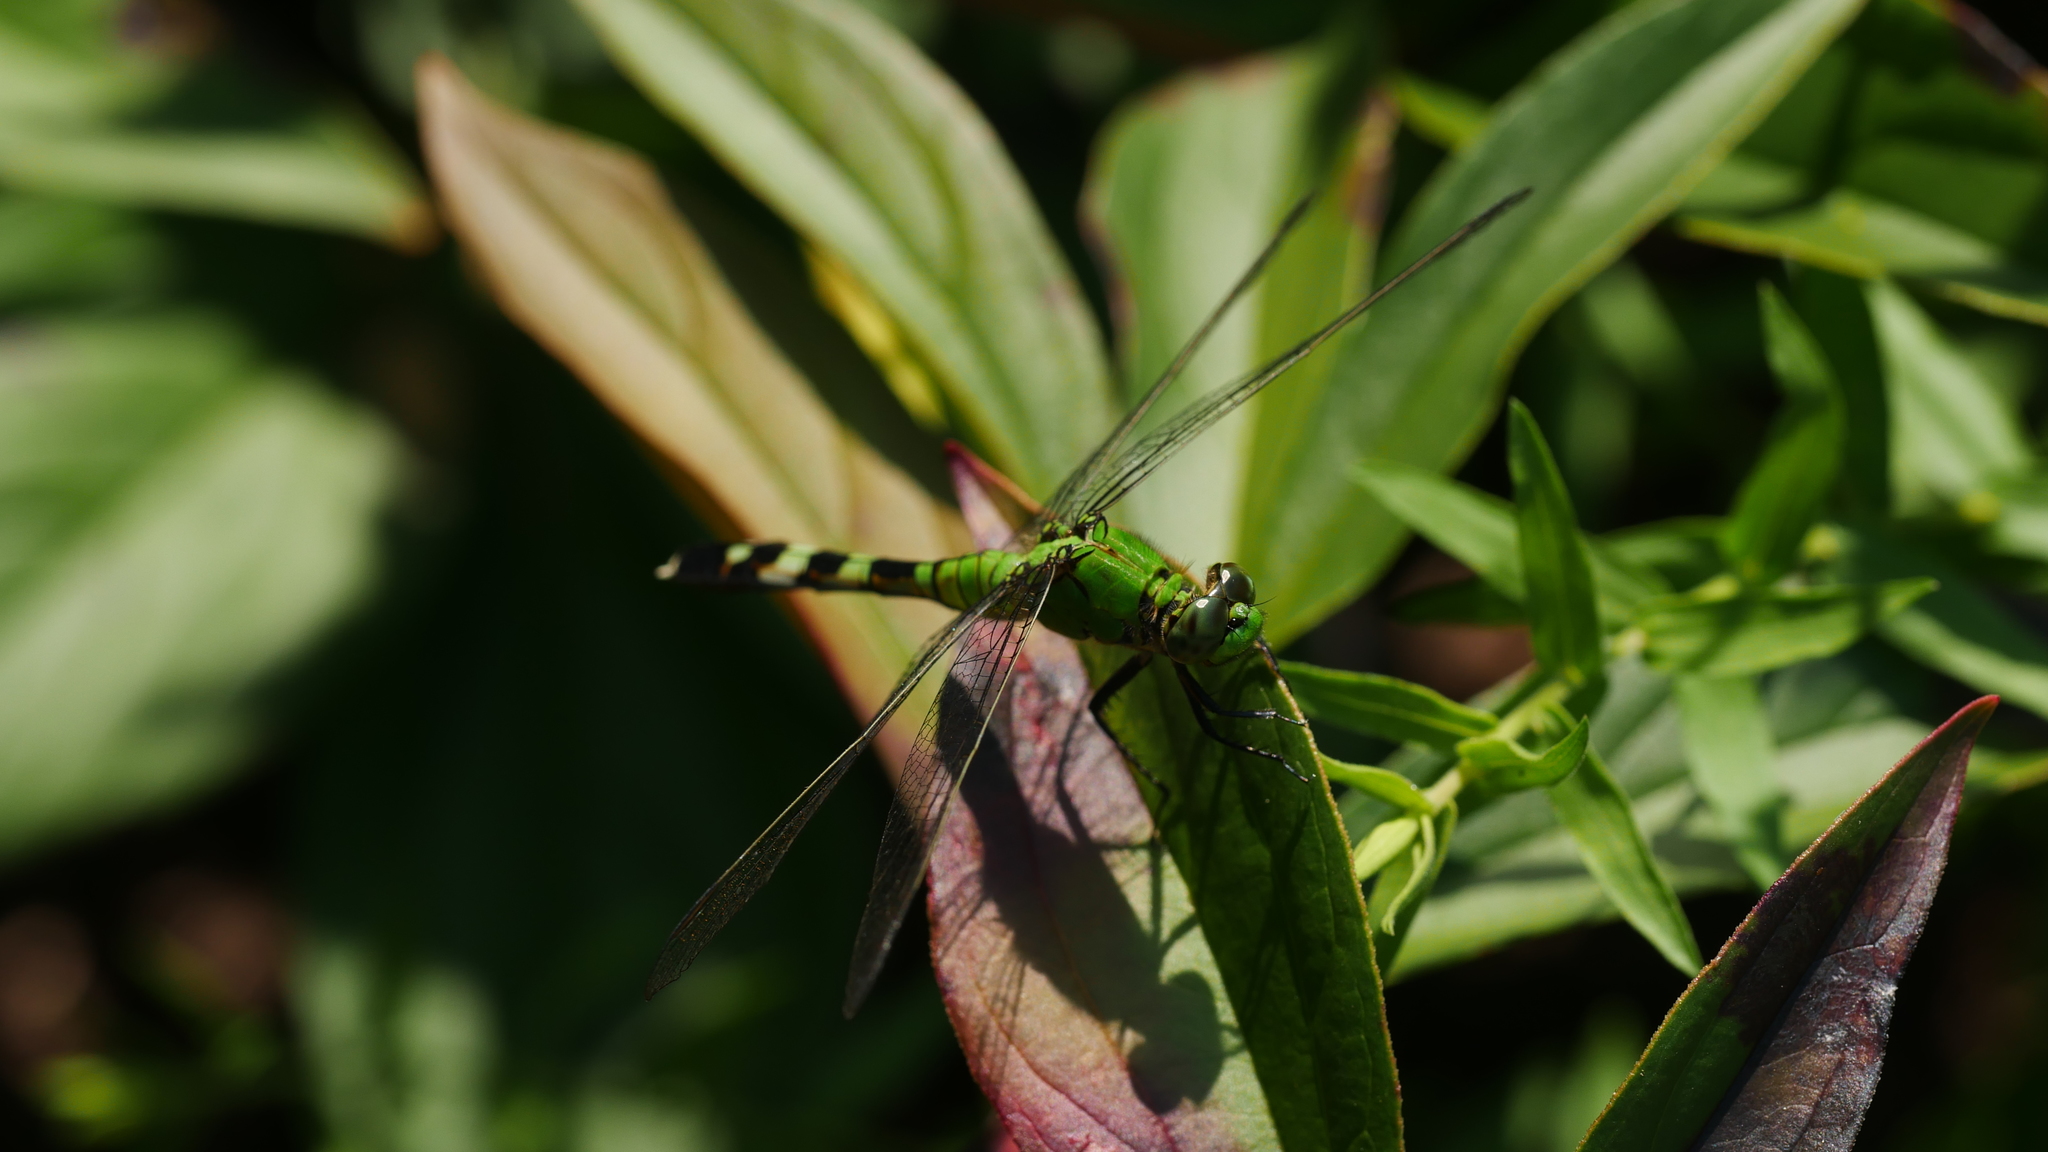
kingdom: Animalia
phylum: Arthropoda
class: Insecta
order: Odonata
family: Libellulidae
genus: Erythemis
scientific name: Erythemis simplicicollis
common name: Eastern pondhawk
